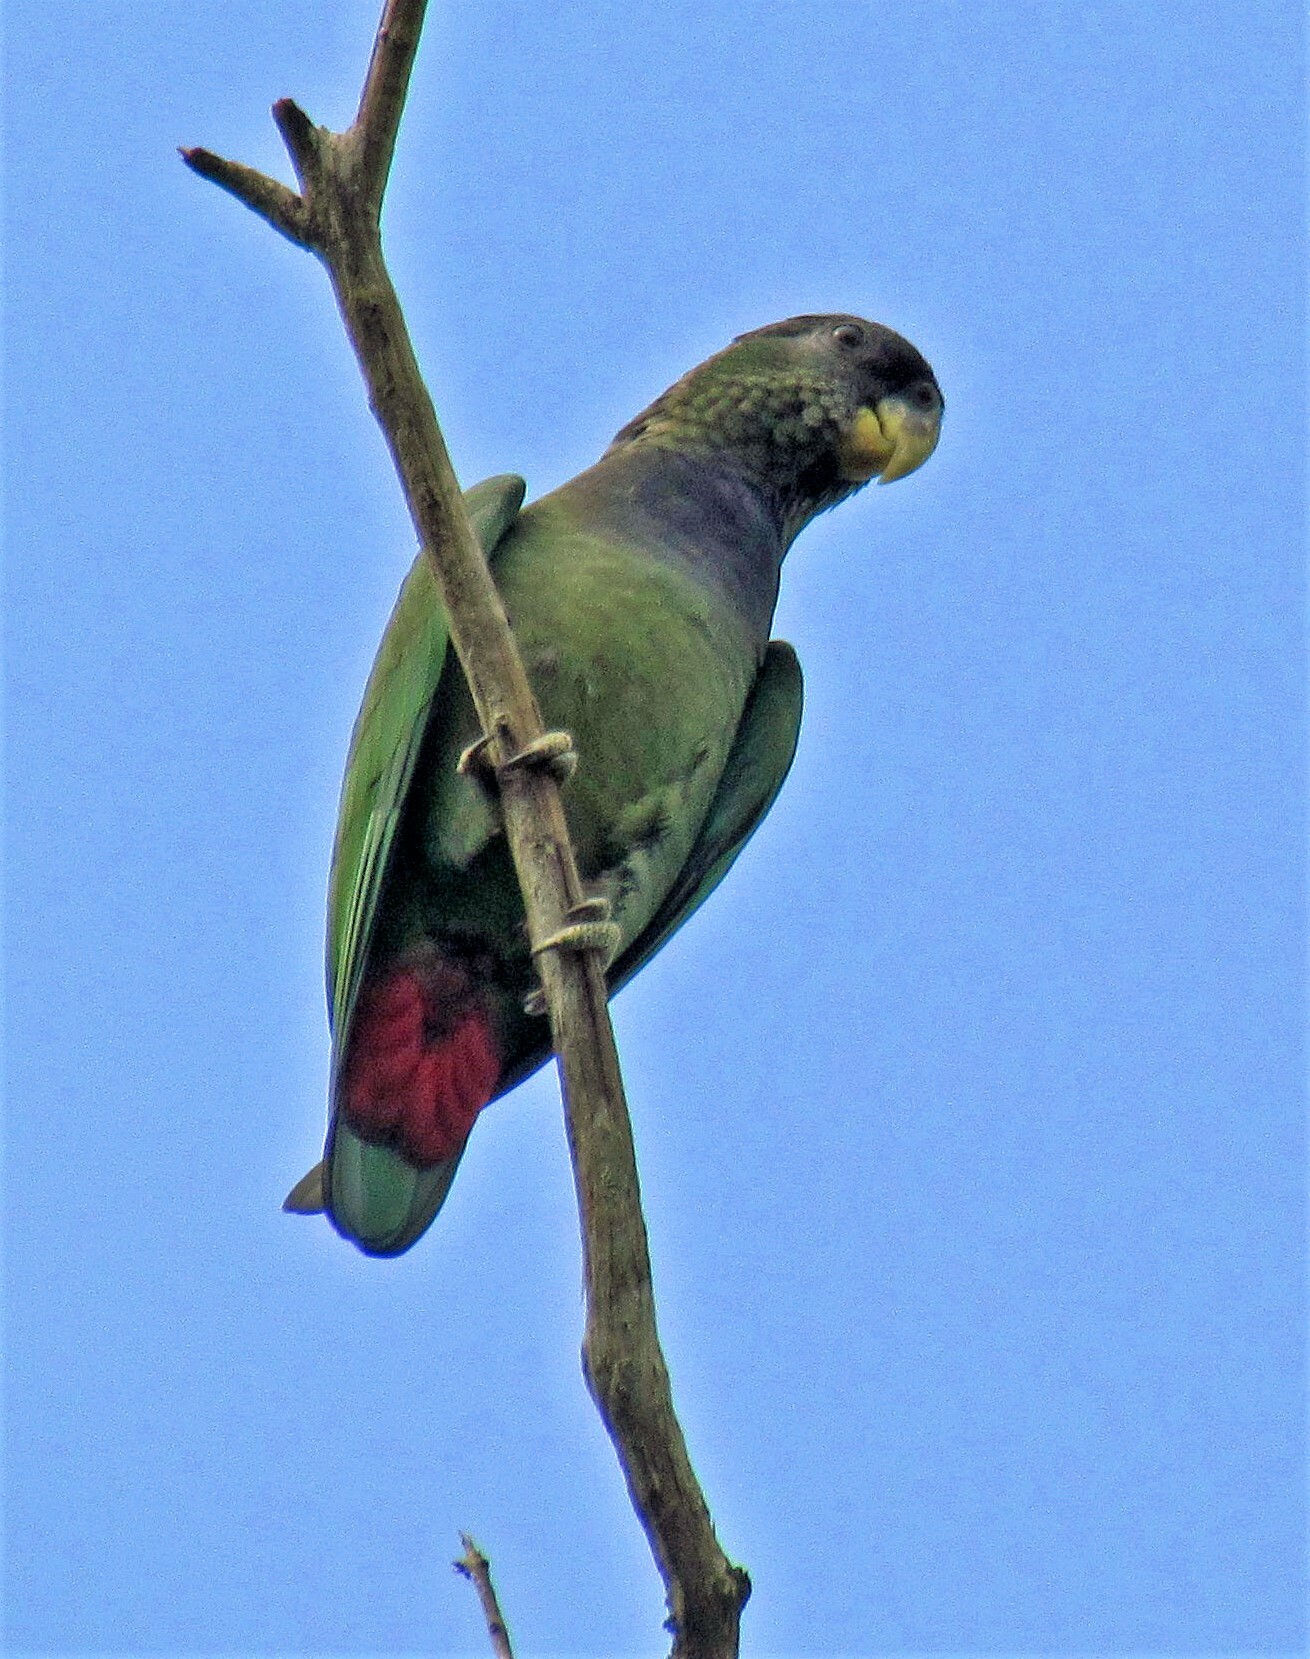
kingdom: Animalia
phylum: Chordata
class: Aves
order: Psittaciformes
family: Psittacidae
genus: Pionus
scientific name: Pionus maximiliani
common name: Scaly-headed parrot
